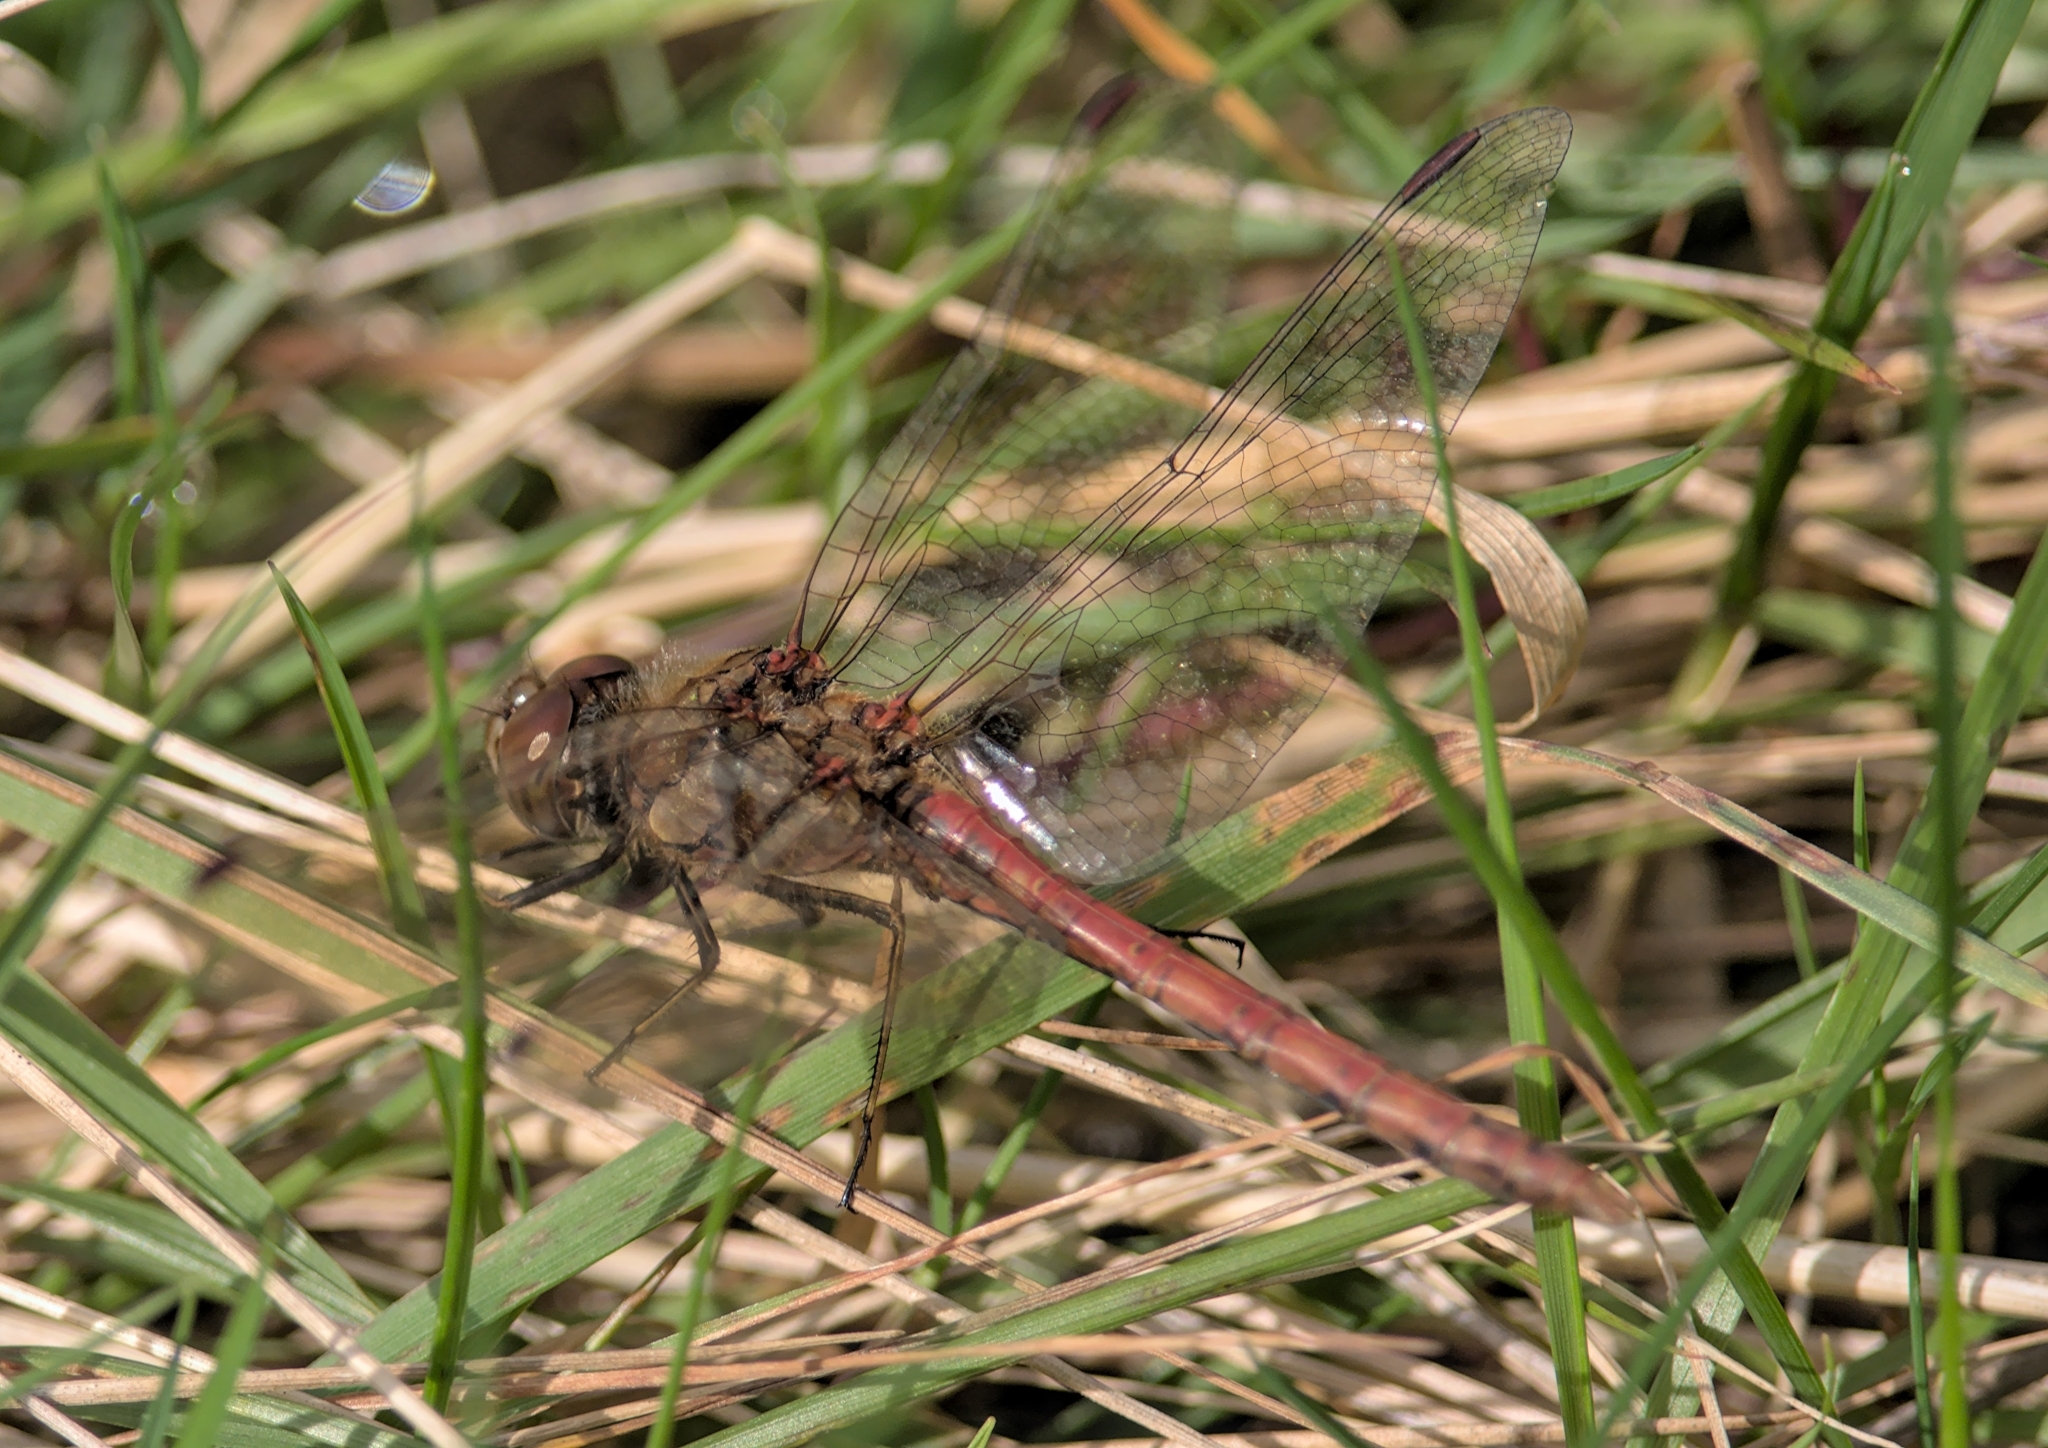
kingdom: Animalia
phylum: Arthropoda
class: Insecta
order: Odonata
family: Libellulidae
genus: Sympetrum
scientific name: Sympetrum striolatum
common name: Common darter
